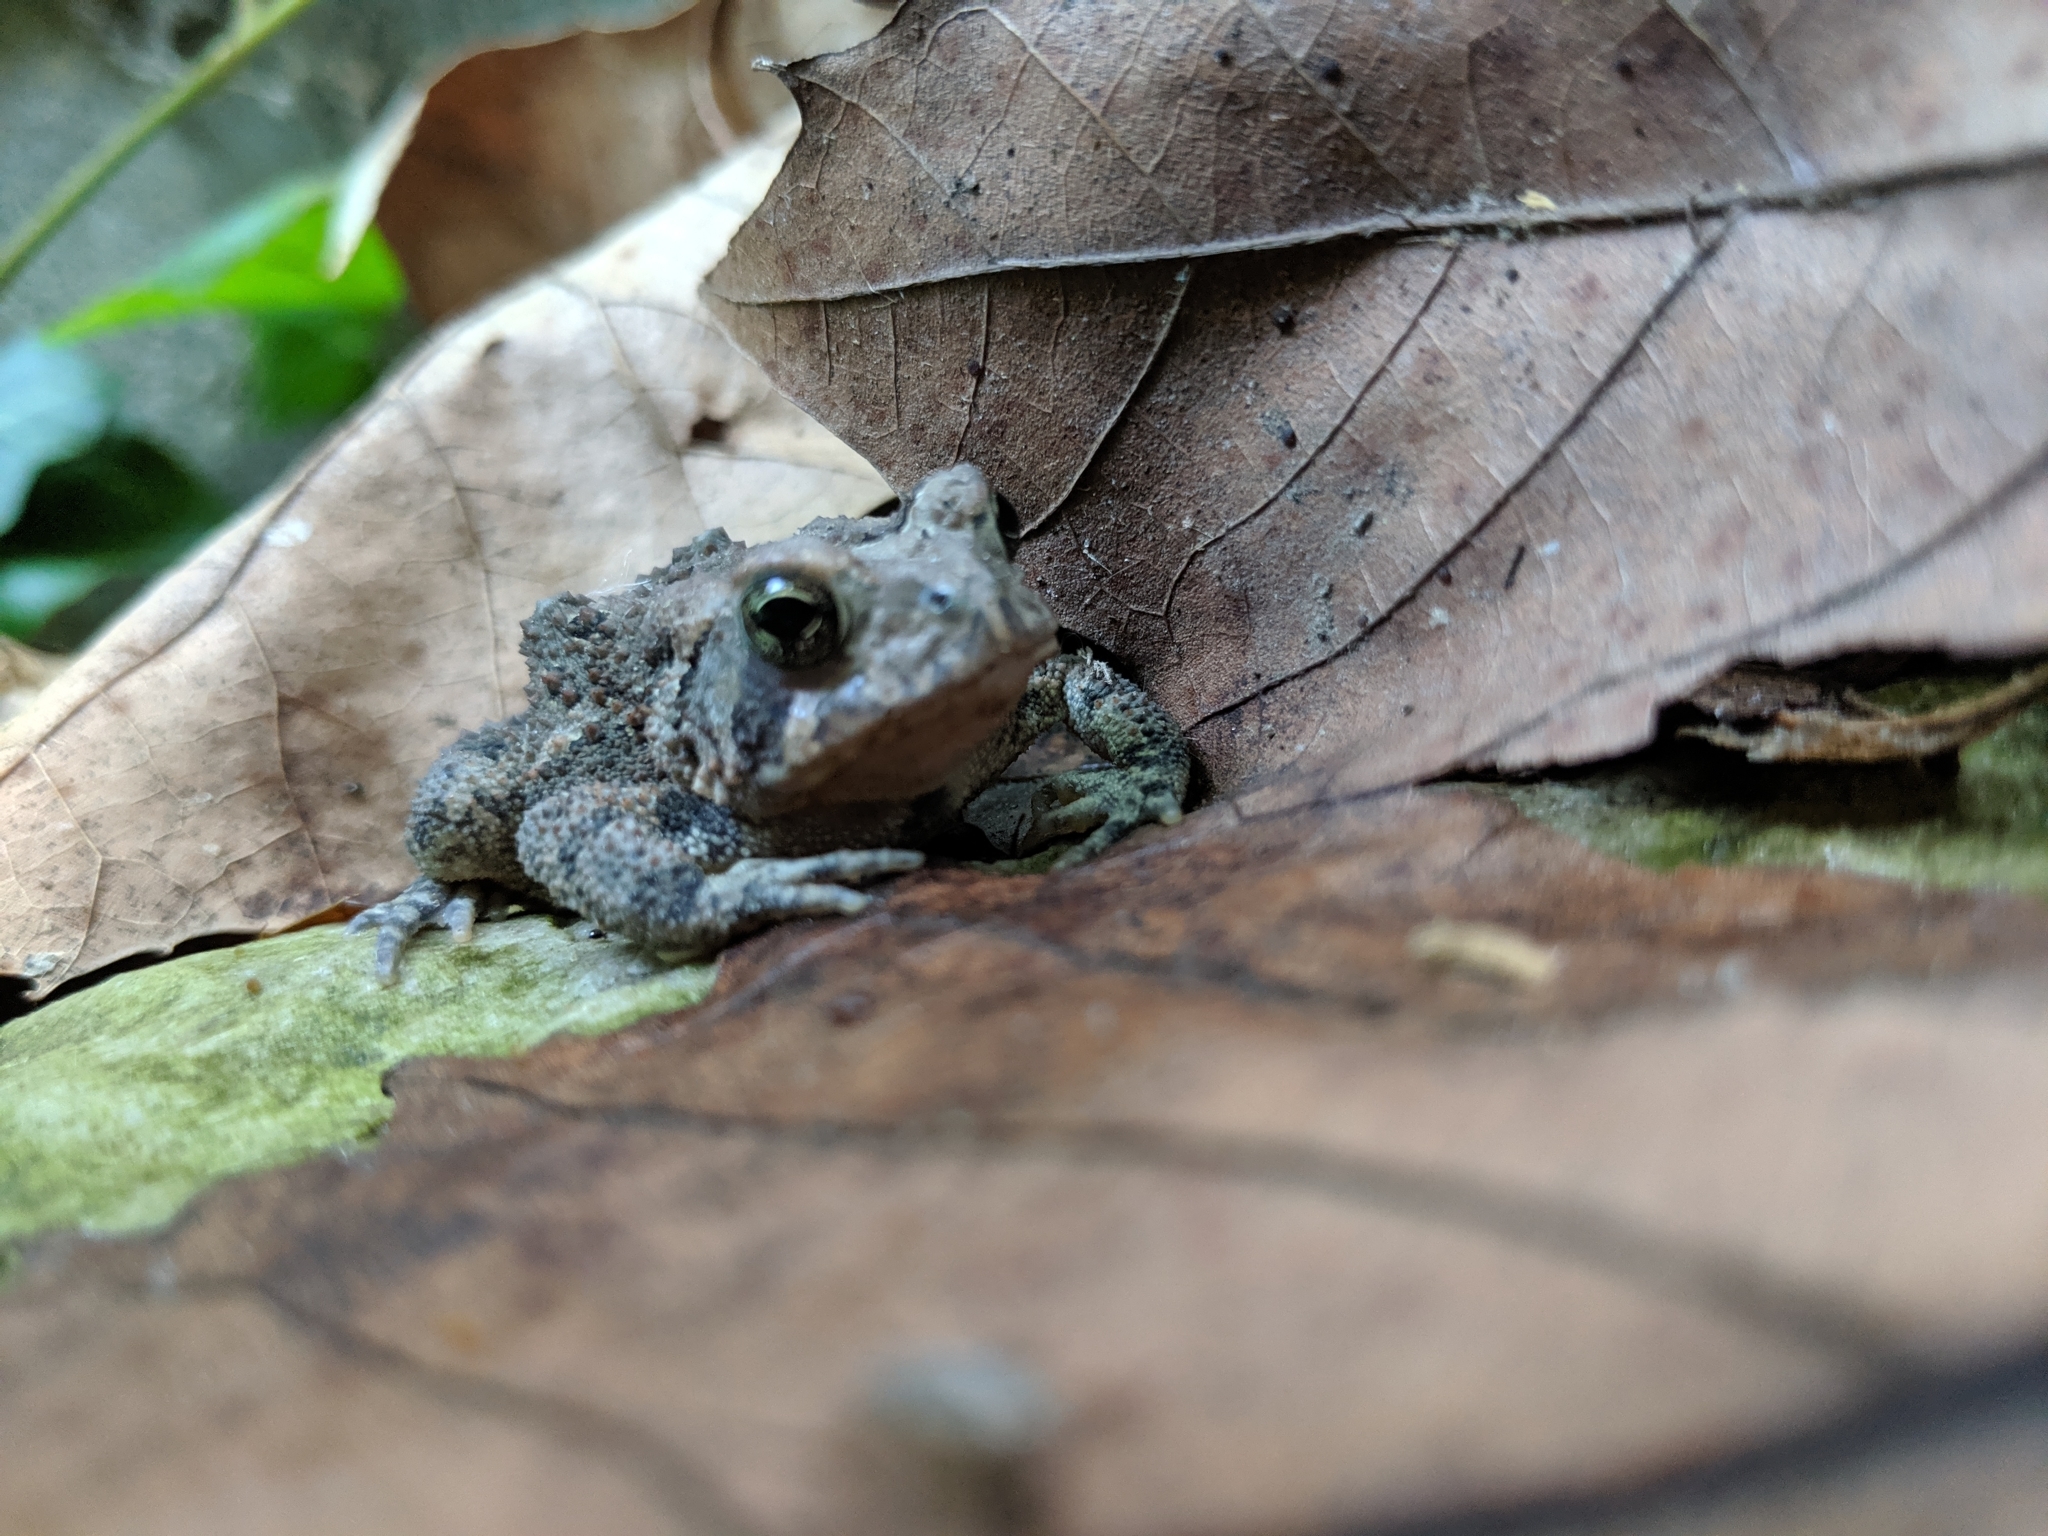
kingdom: Animalia
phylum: Chordata
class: Amphibia
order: Anura
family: Bufonidae
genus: Anaxyrus
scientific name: Anaxyrus americanus
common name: American toad
